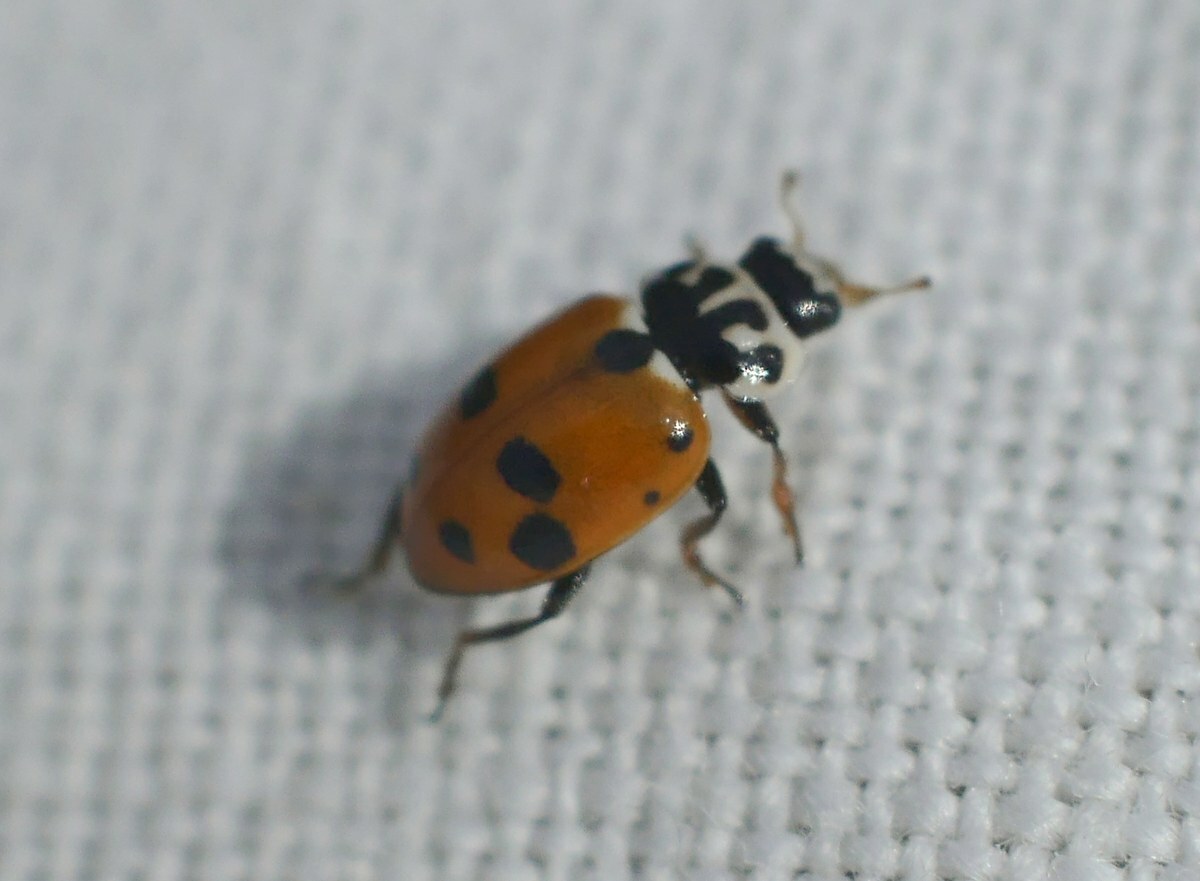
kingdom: Animalia
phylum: Arthropoda
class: Insecta
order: Coleoptera
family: Coccinellidae
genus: Hippodamia
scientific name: Hippodamia variegata
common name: Ladybird beetle
